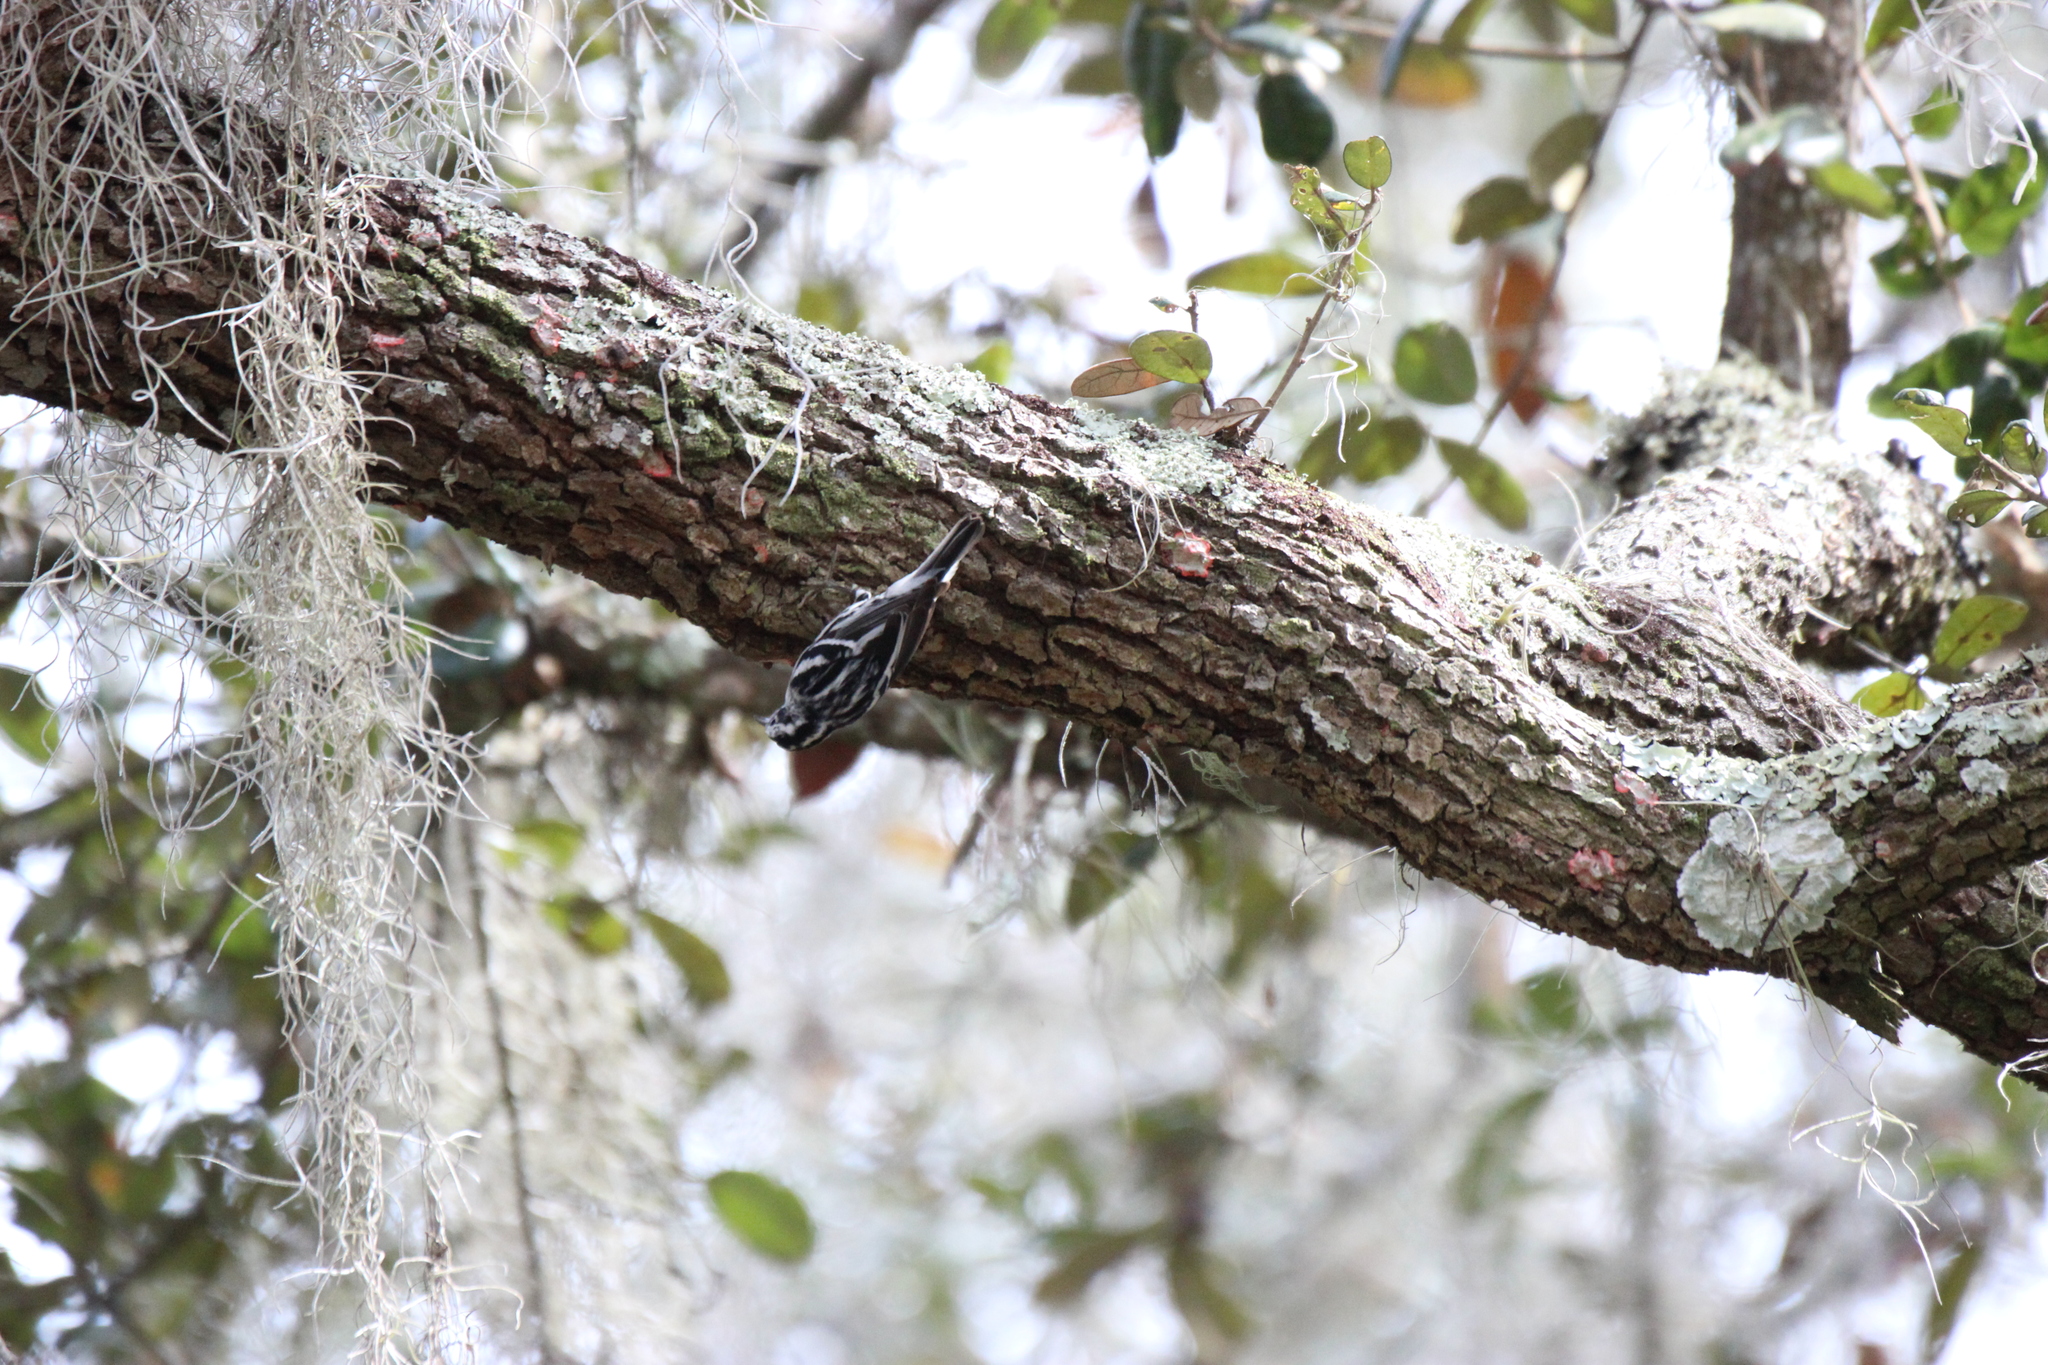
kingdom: Animalia
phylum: Chordata
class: Aves
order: Passeriformes
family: Parulidae
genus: Mniotilta
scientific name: Mniotilta varia
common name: Black-and-white warbler
